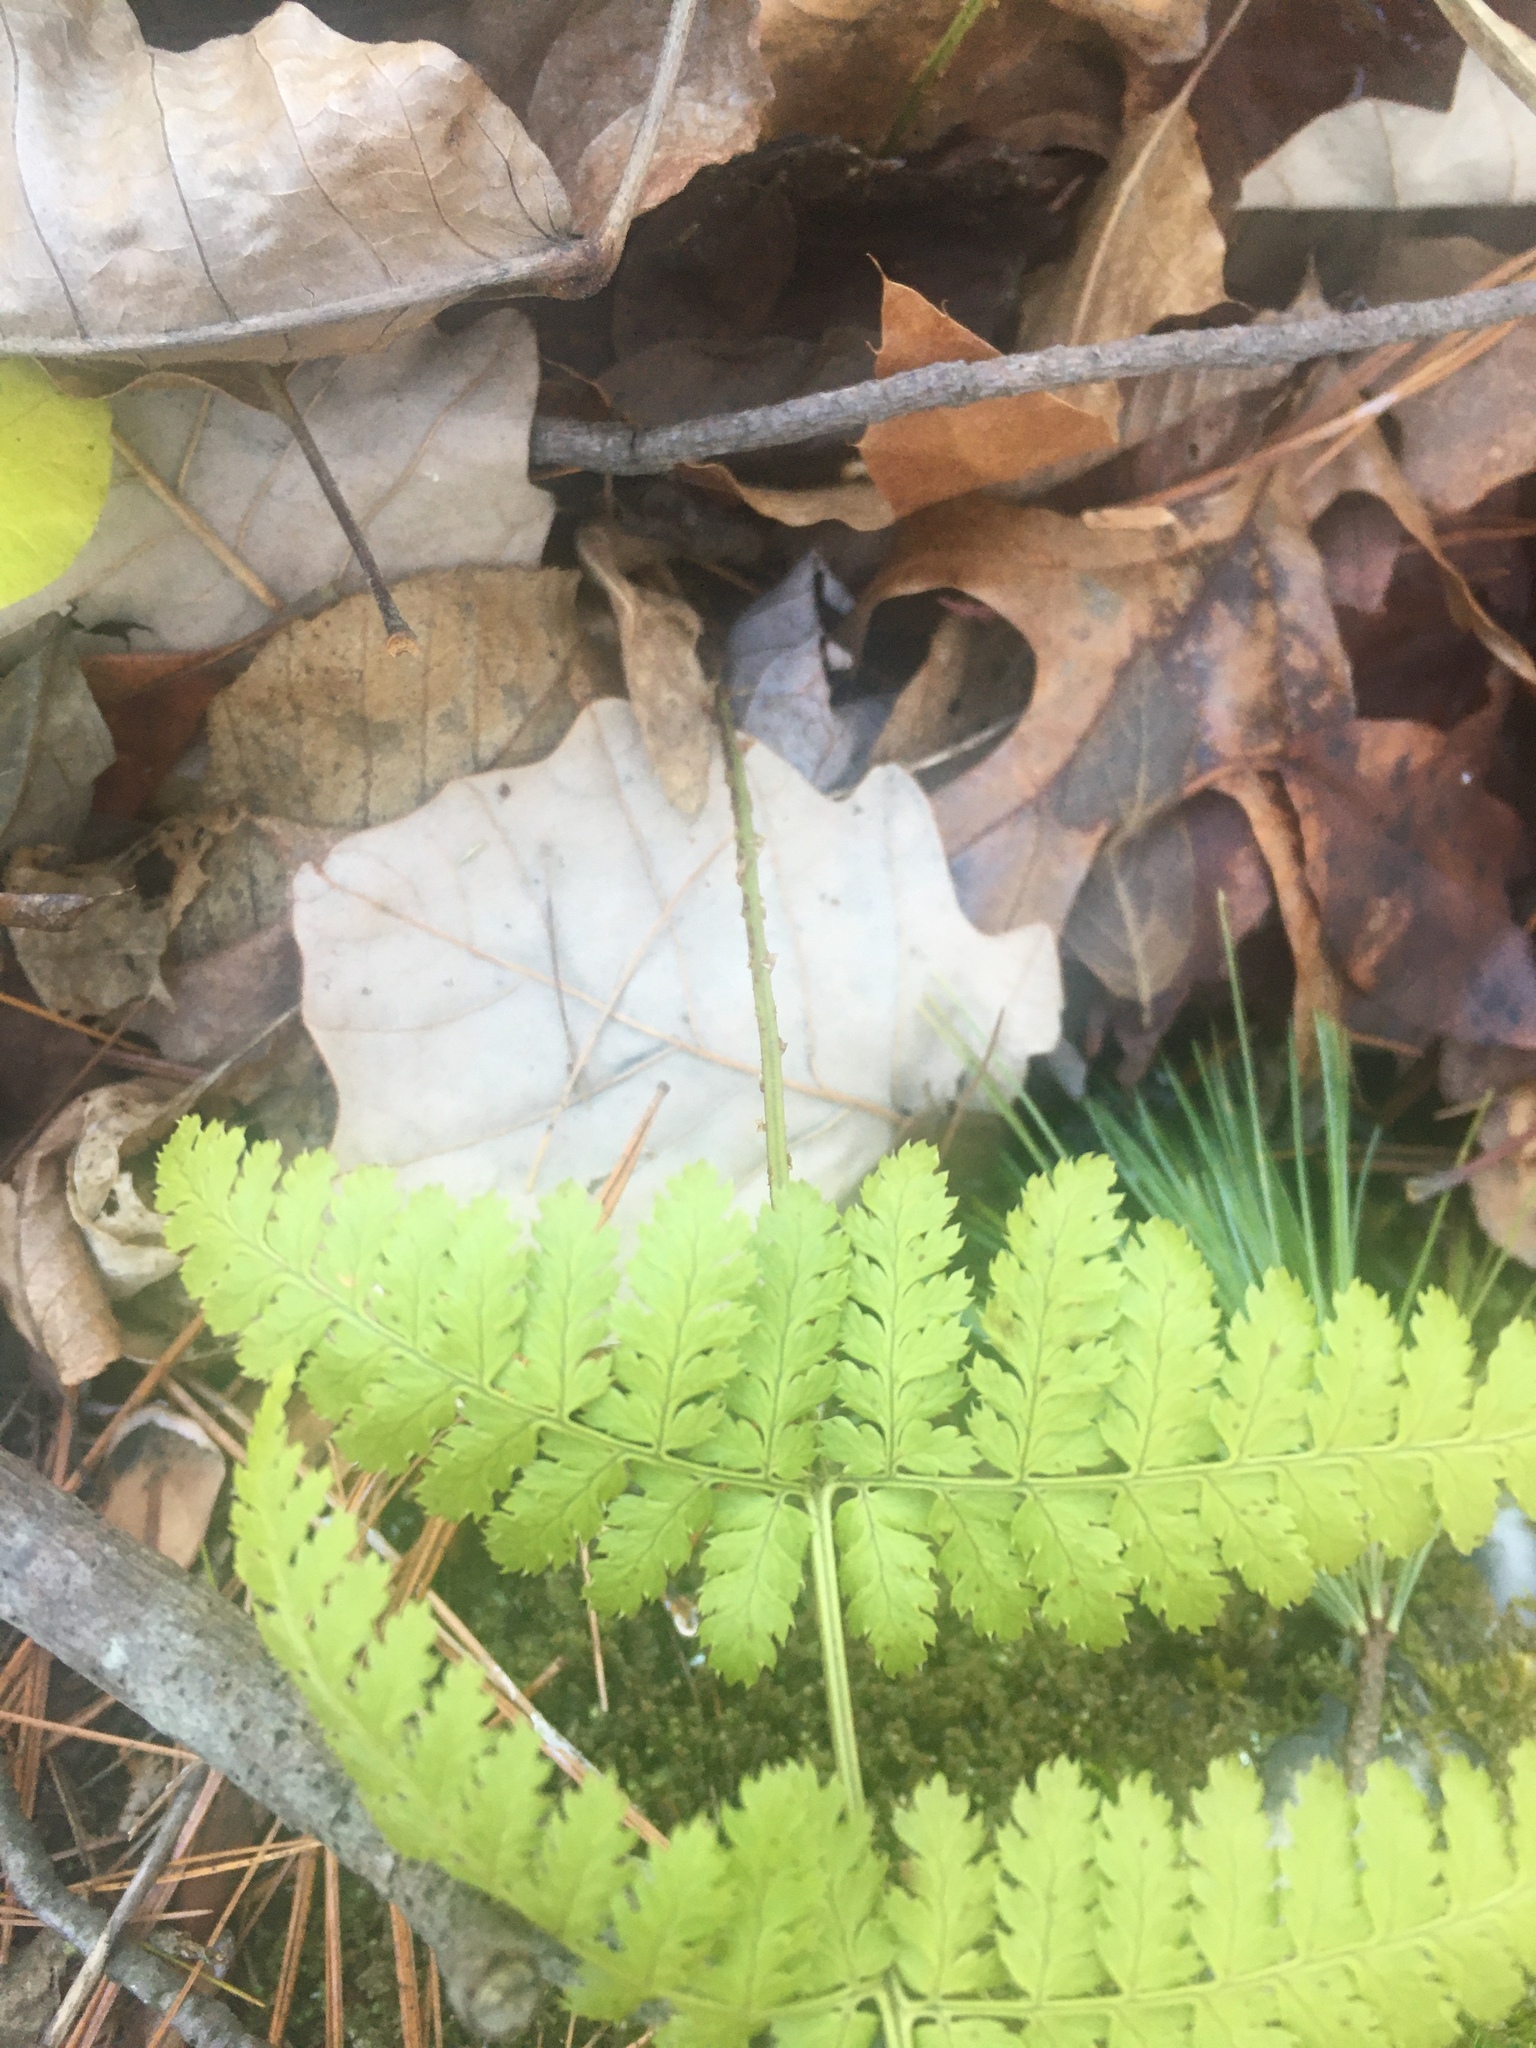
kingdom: Plantae
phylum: Tracheophyta
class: Polypodiopsida
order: Polypodiales
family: Dryopteridaceae
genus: Dryopteris
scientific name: Dryopteris intermedia
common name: Evergreen wood fern
